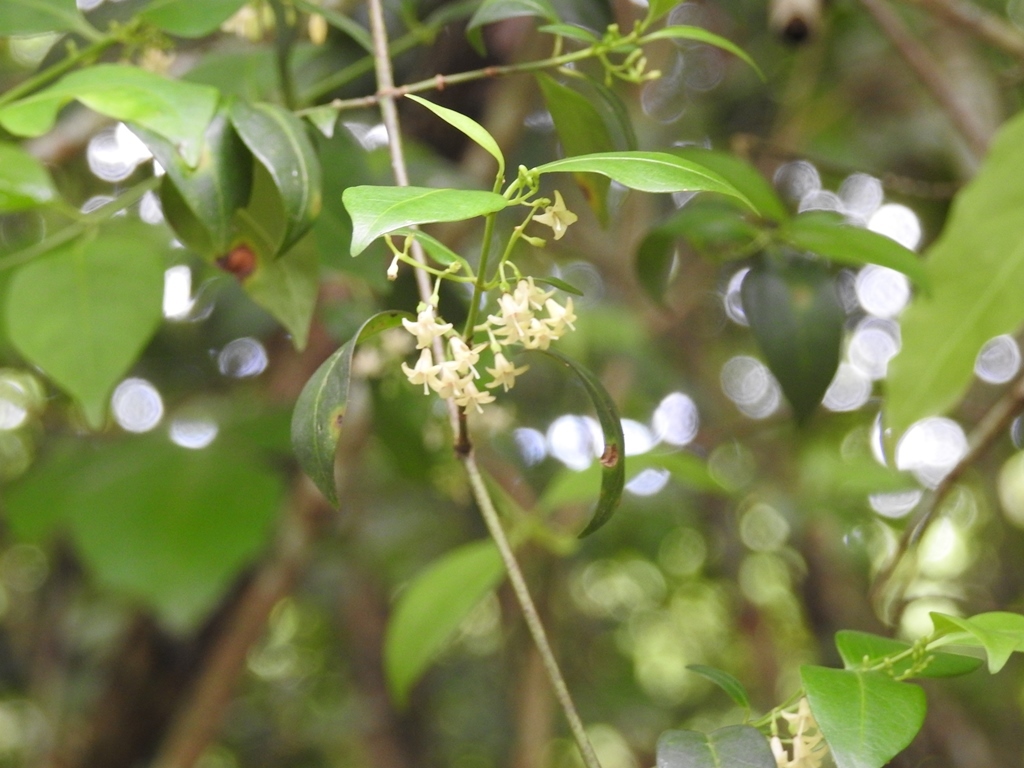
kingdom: Plantae
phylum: Tracheophyta
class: Magnoliopsida
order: Gentianales
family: Rubiaceae
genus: Chiococca
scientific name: Chiococca alba
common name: Snowberry
